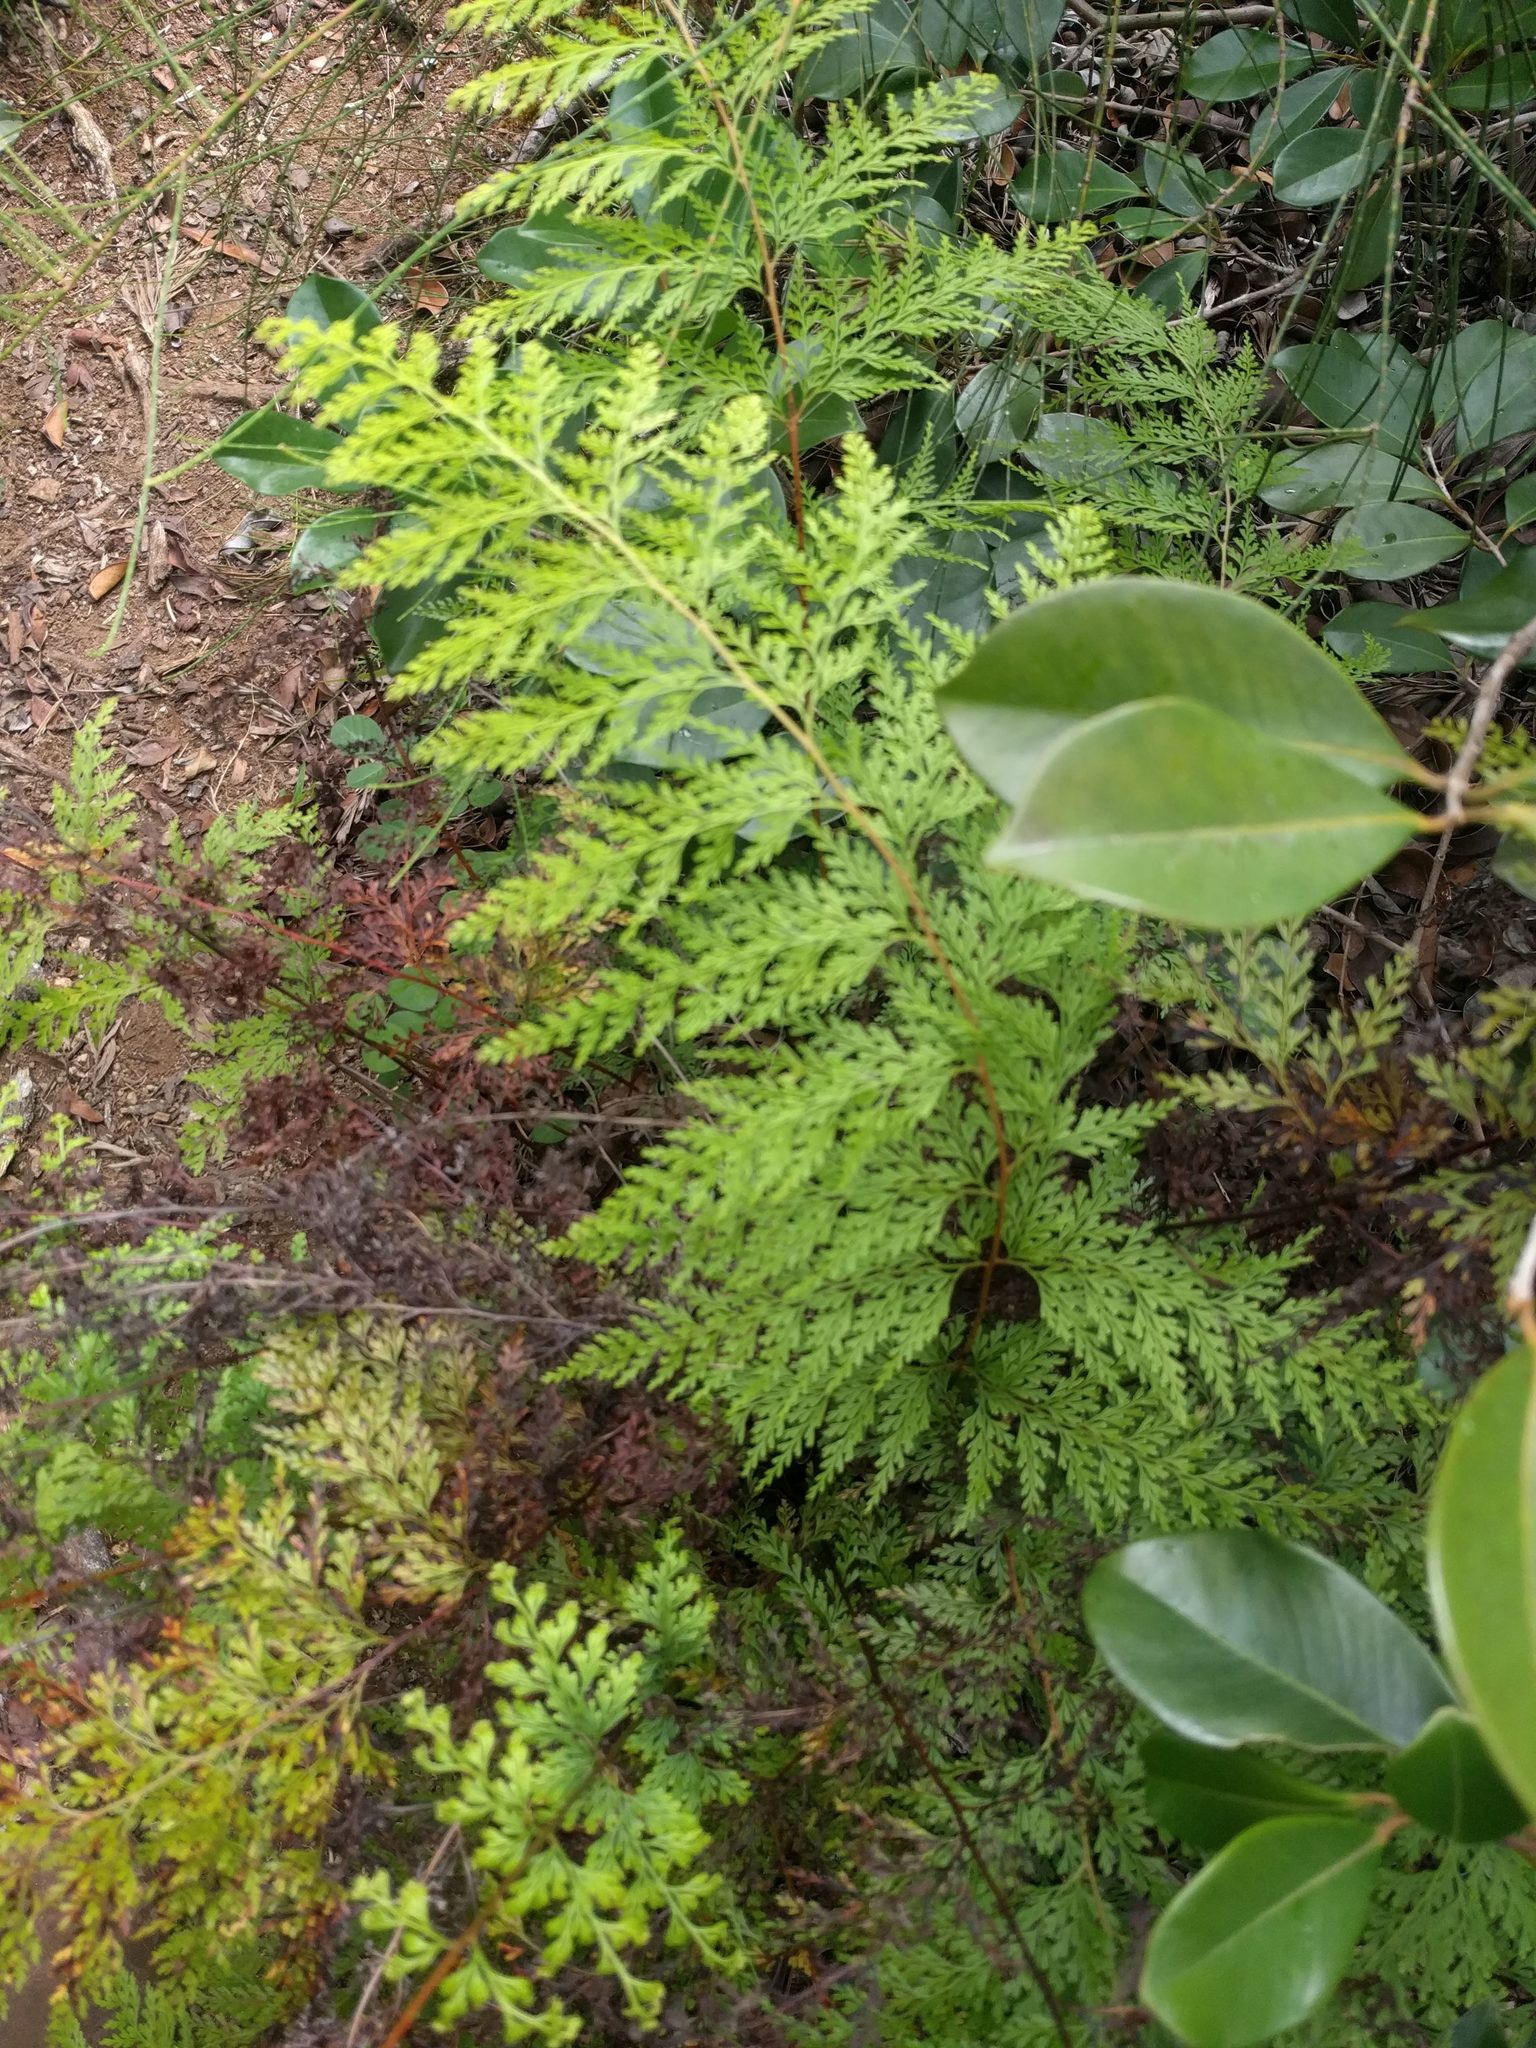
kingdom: Plantae
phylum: Tracheophyta
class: Polypodiopsida
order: Polypodiales
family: Lindsaeaceae
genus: Odontosoria
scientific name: Odontosoria chinensis
